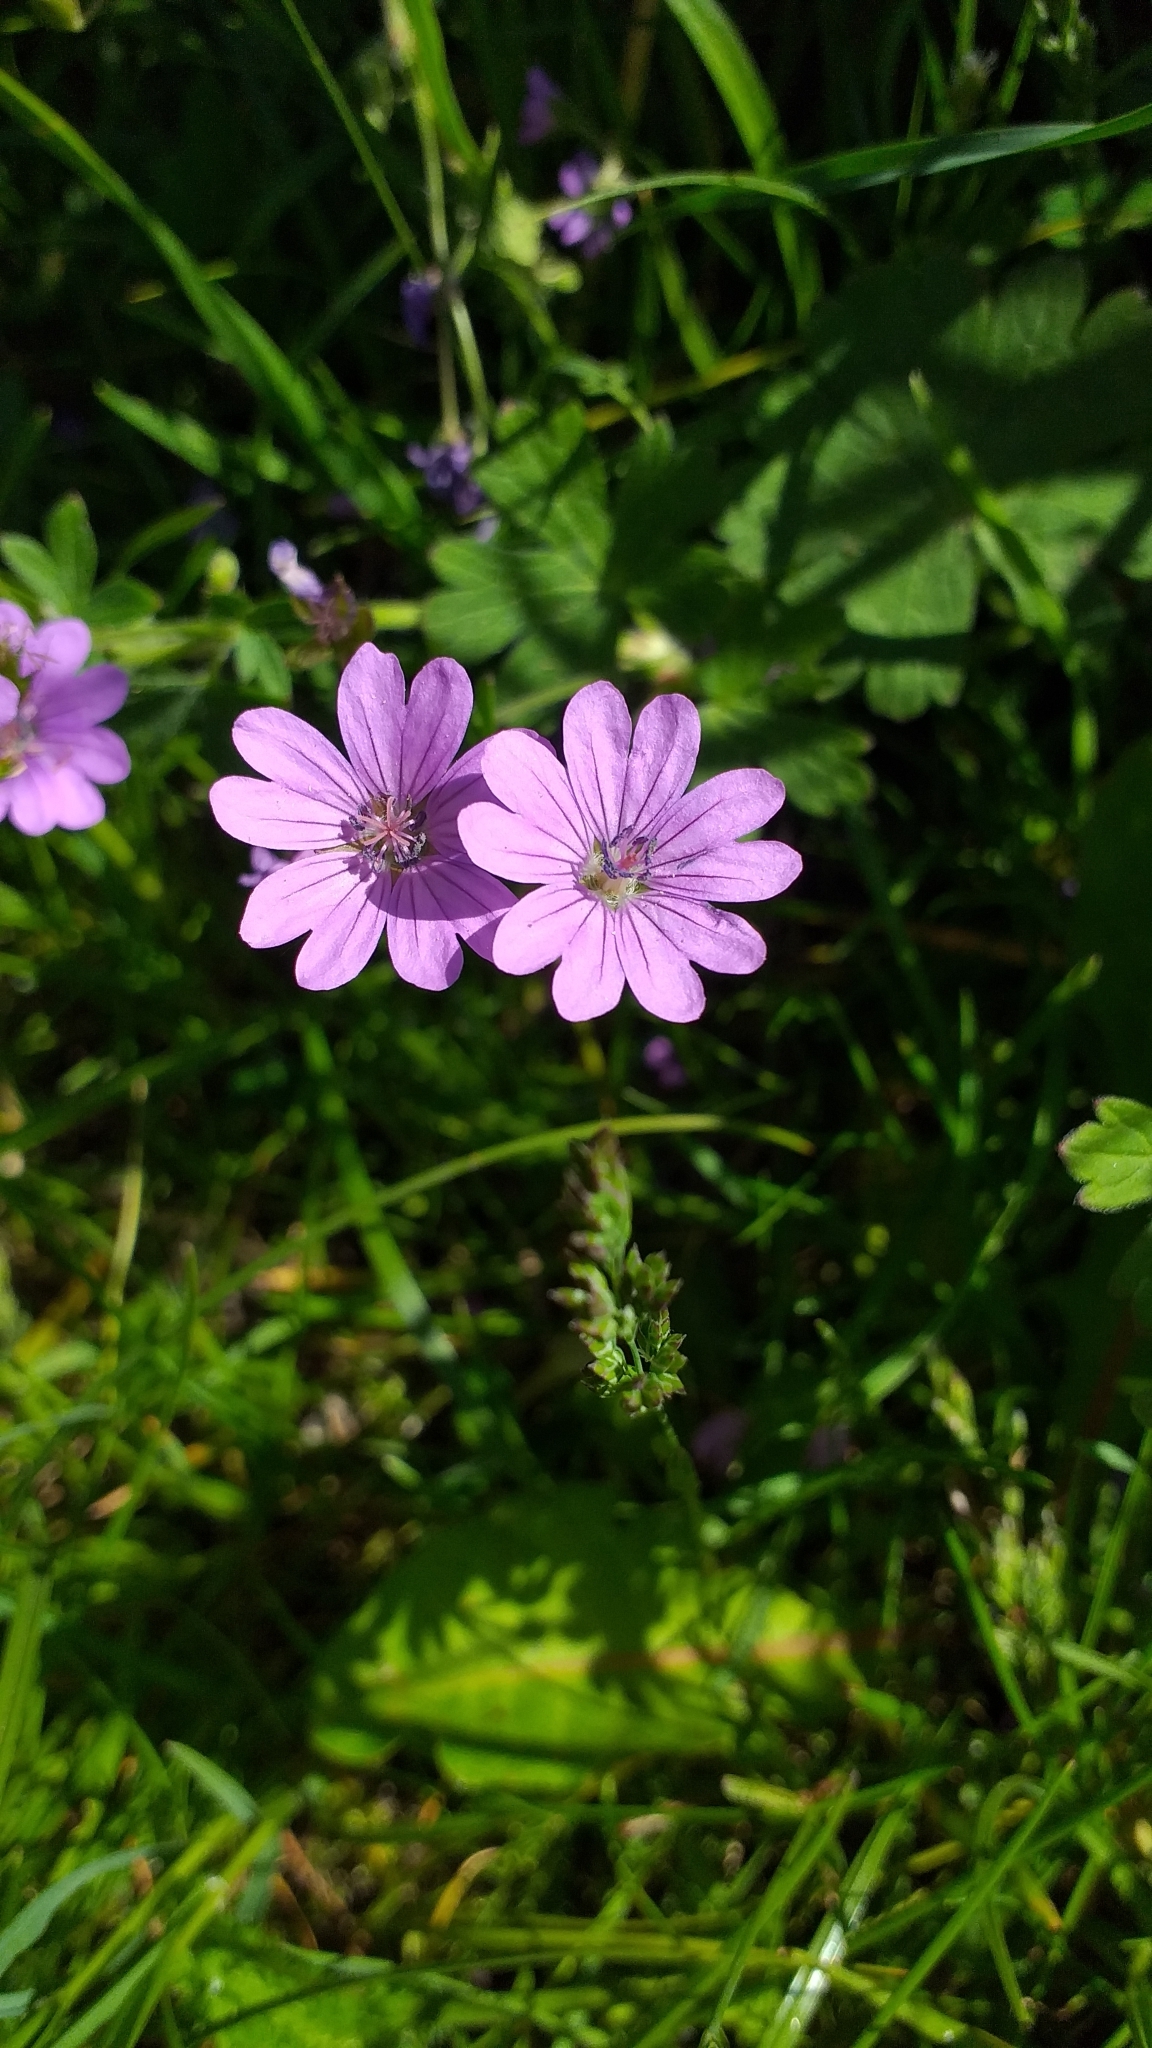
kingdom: Plantae
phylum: Tracheophyta
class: Magnoliopsida
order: Geraniales
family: Geraniaceae
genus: Geranium
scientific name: Geranium pyrenaicum
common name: Hedgerow crane's-bill
